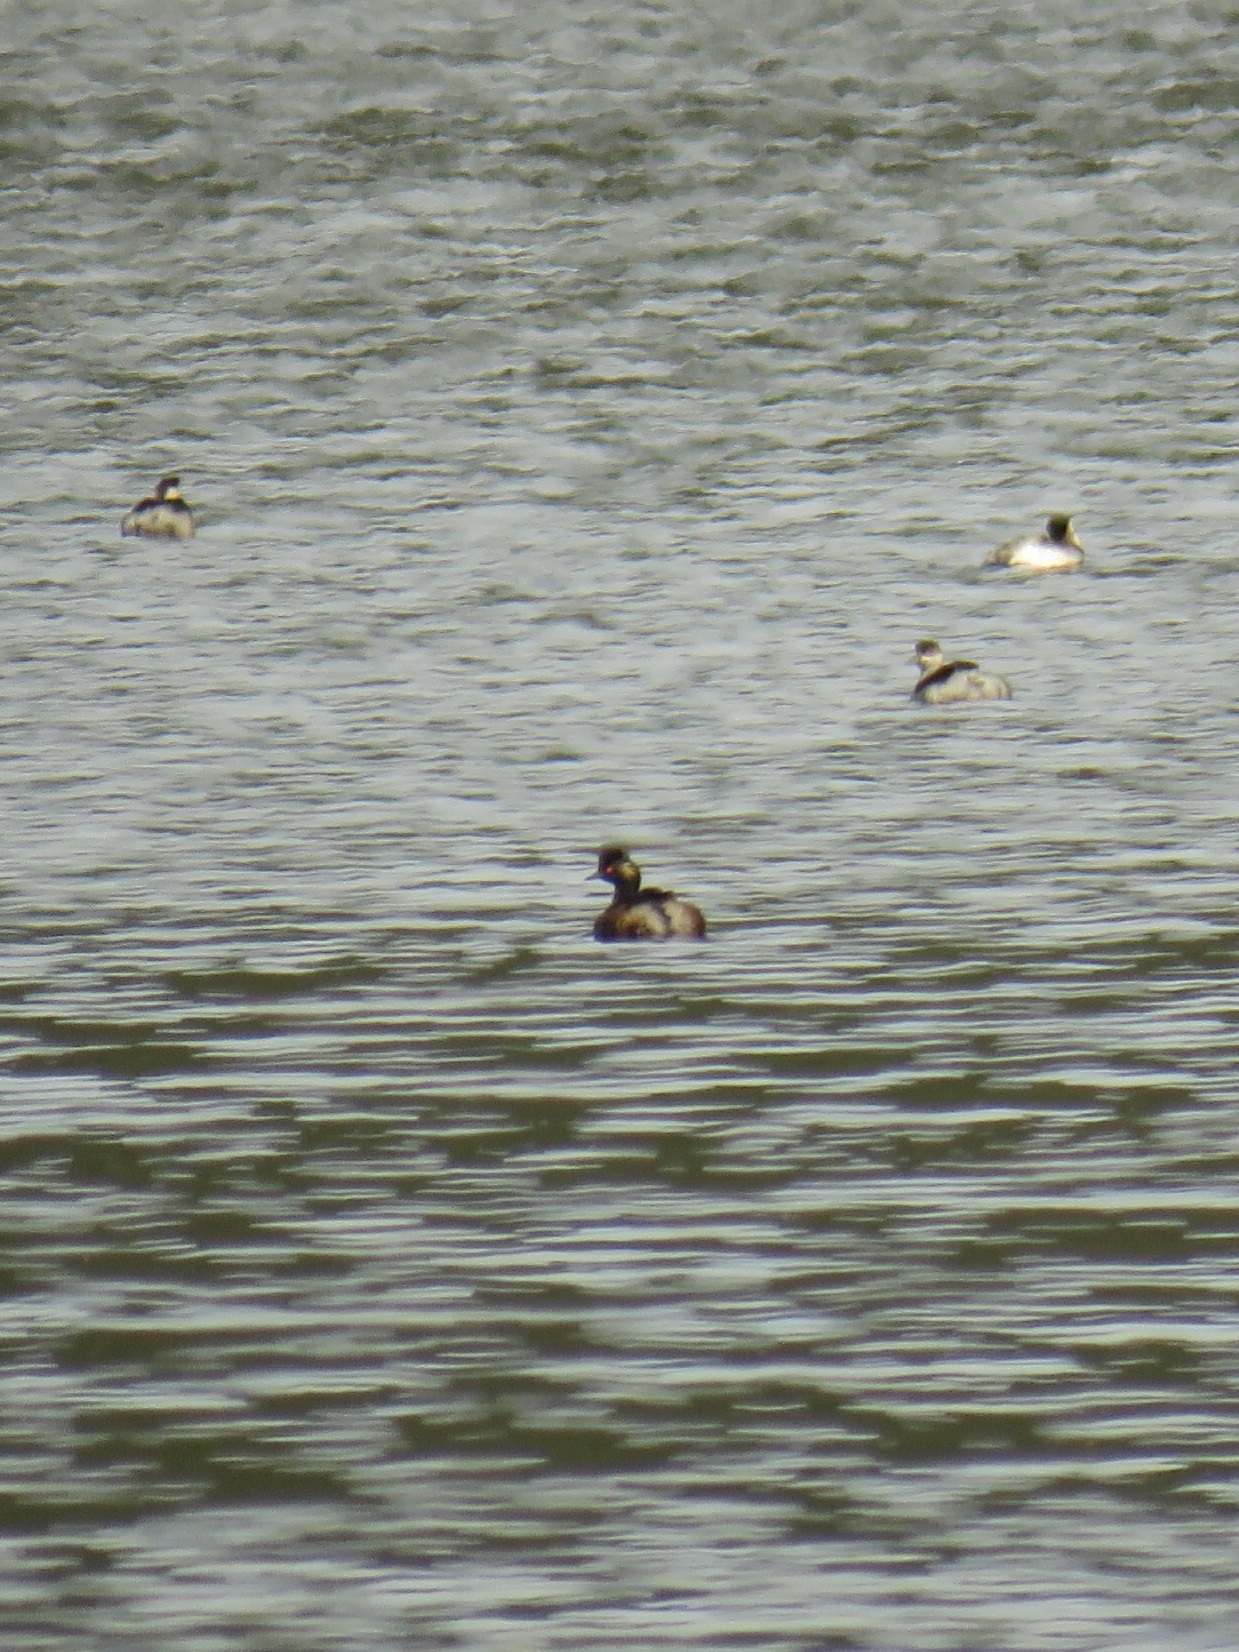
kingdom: Animalia
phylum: Chordata
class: Aves
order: Podicipediformes
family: Podicipedidae
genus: Podiceps
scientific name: Podiceps nigricollis
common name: Black-necked grebe
